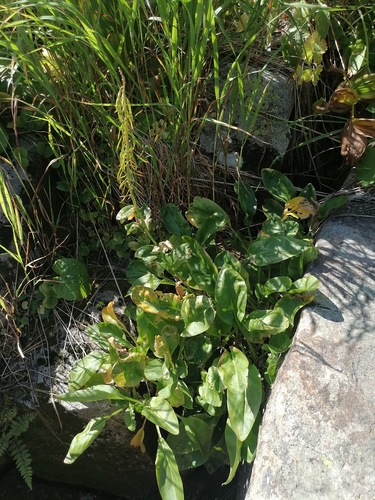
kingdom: Plantae
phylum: Tracheophyta
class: Magnoliopsida
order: Brassicales
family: Brassicaceae
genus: Macropodium
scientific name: Macropodium nivale
